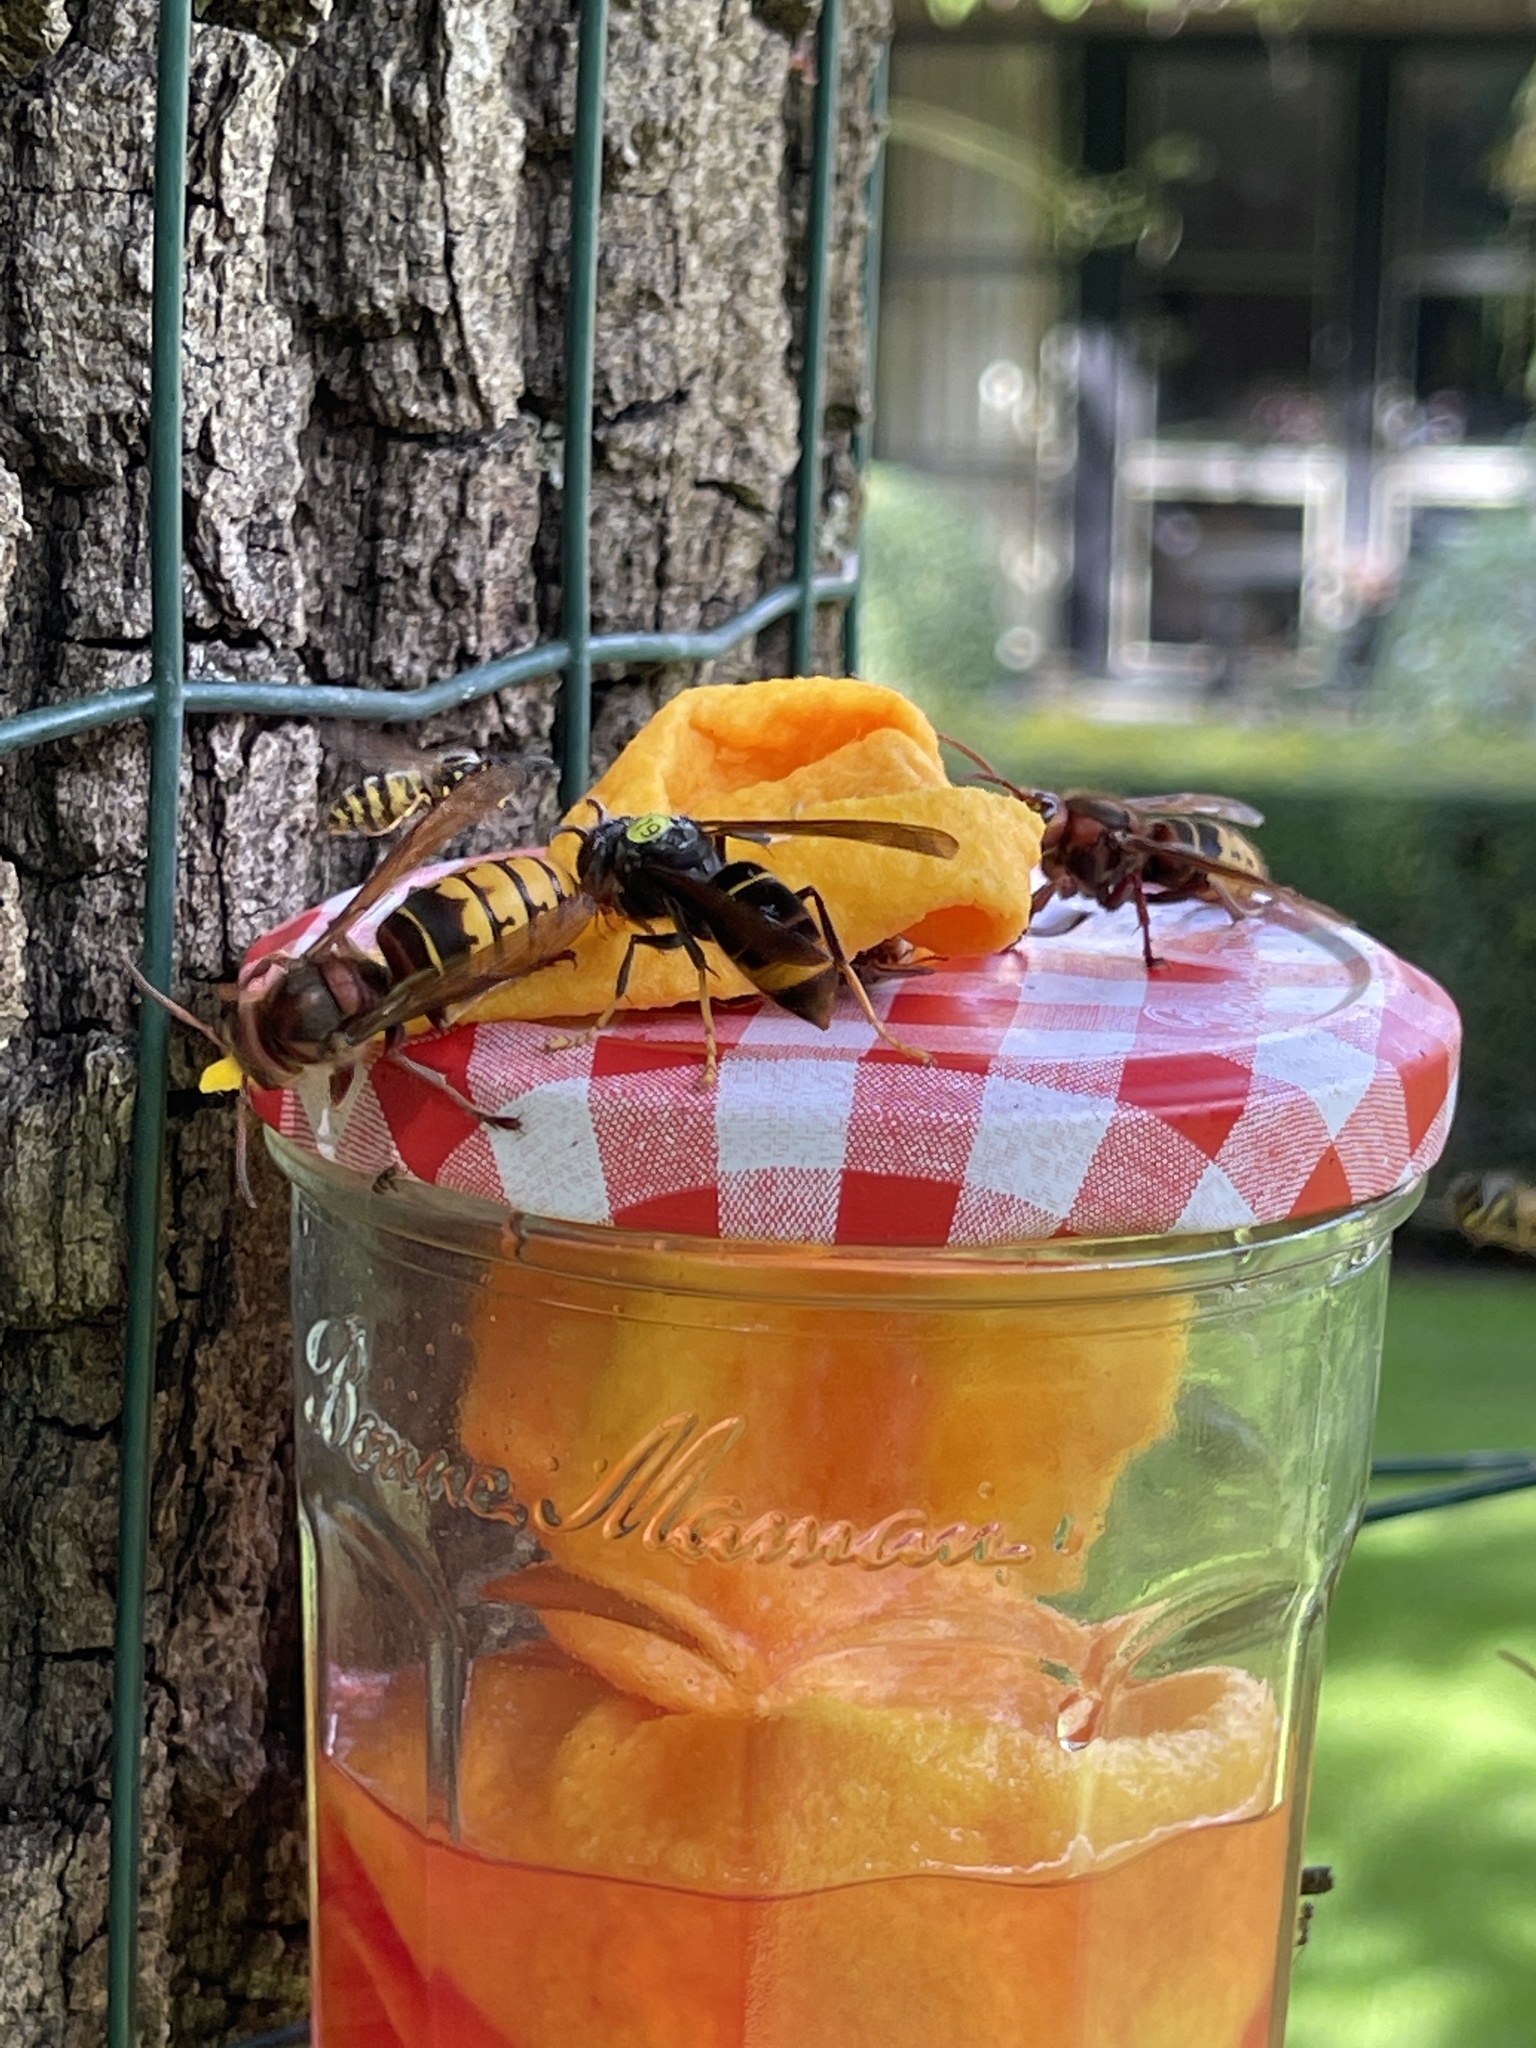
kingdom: Animalia
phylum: Arthropoda
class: Insecta
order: Hymenoptera
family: Vespidae
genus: Vespa
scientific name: Vespa velutina
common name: Asian hornet
